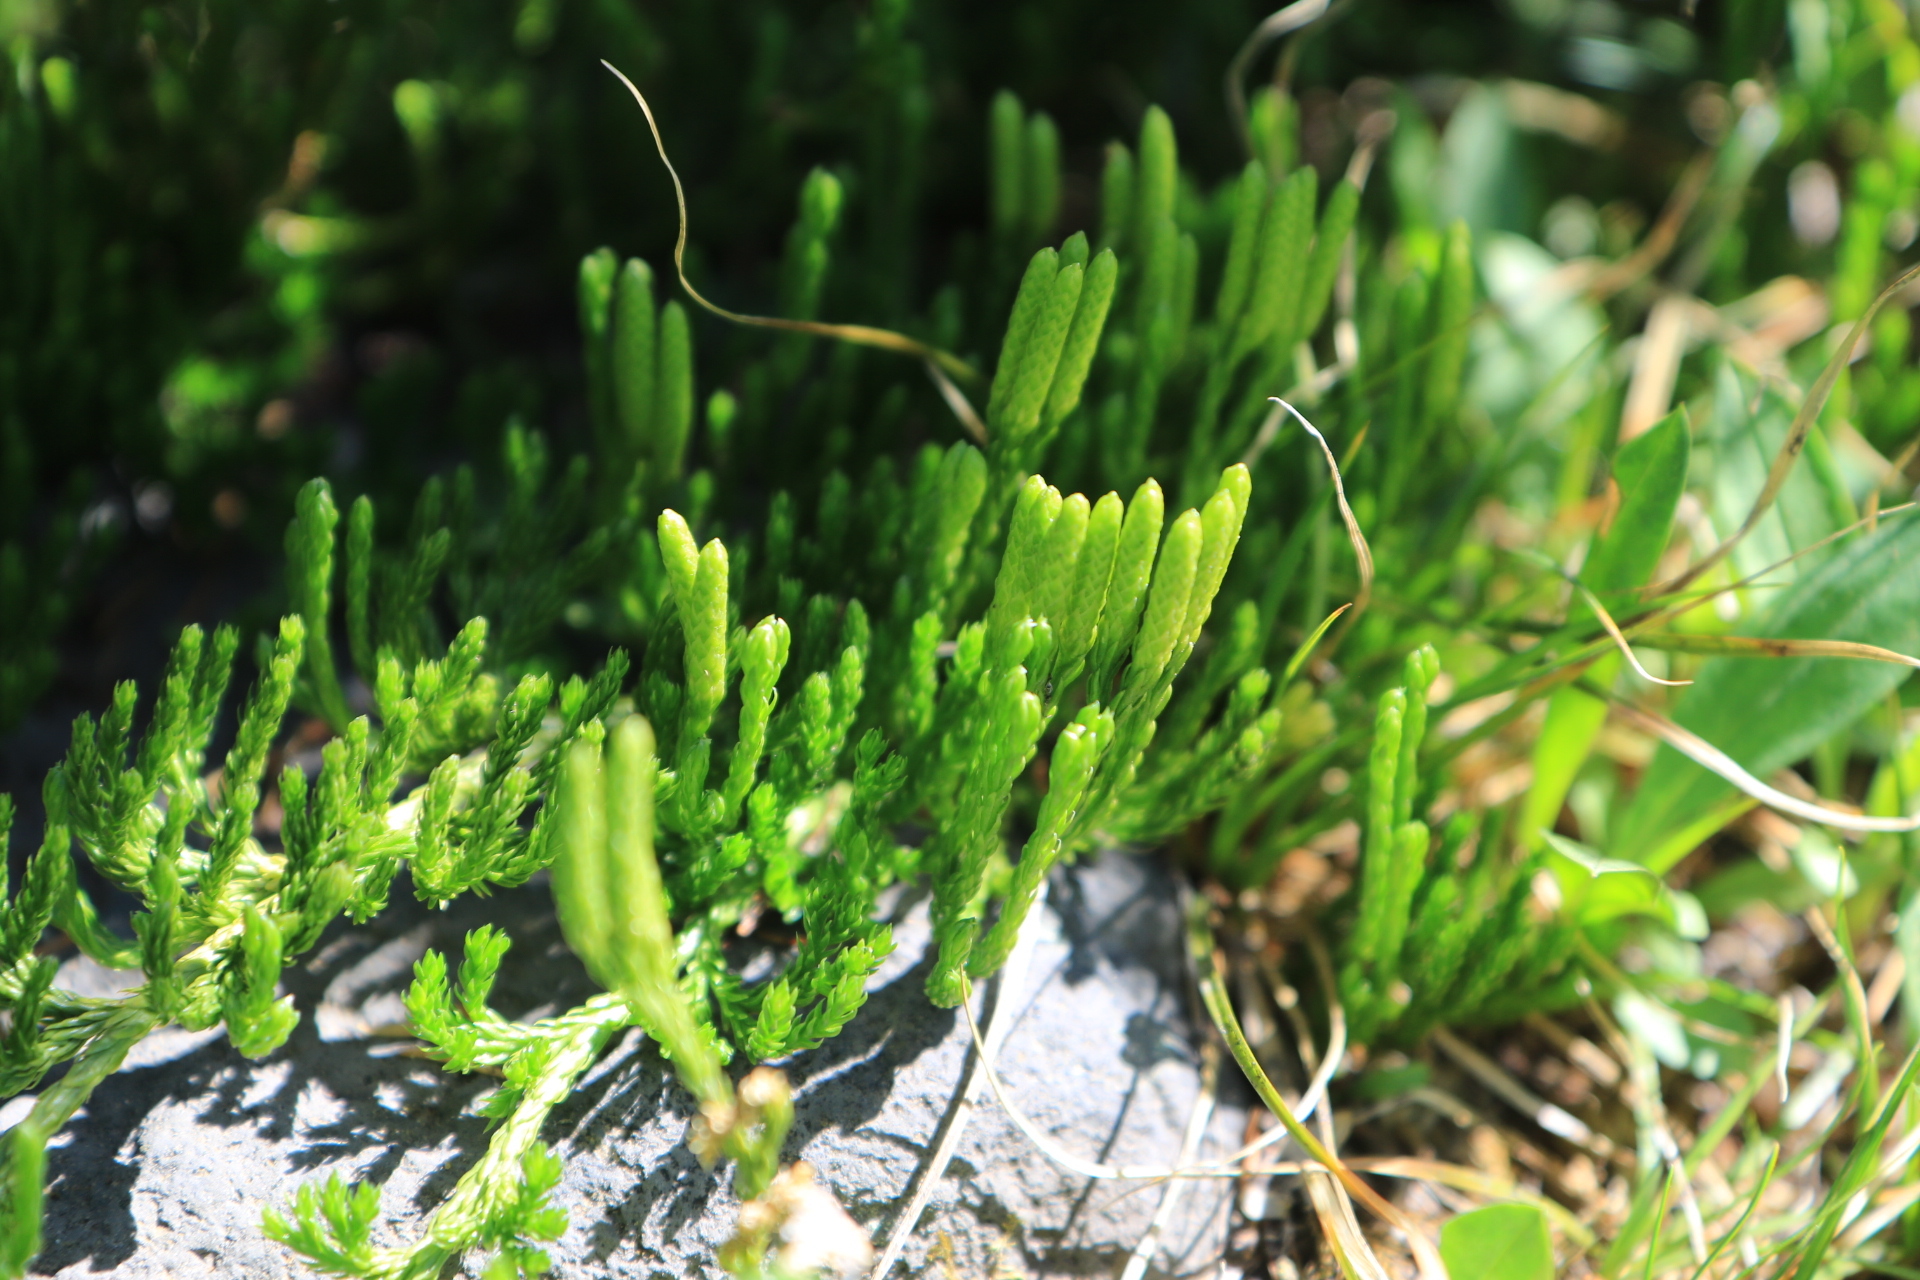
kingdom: Plantae
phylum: Tracheophyta
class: Lycopodiopsida
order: Lycopodiales
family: Lycopodiaceae
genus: Diphasiastrum
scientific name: Diphasiastrum sitchense
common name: Alaska clubmoss
